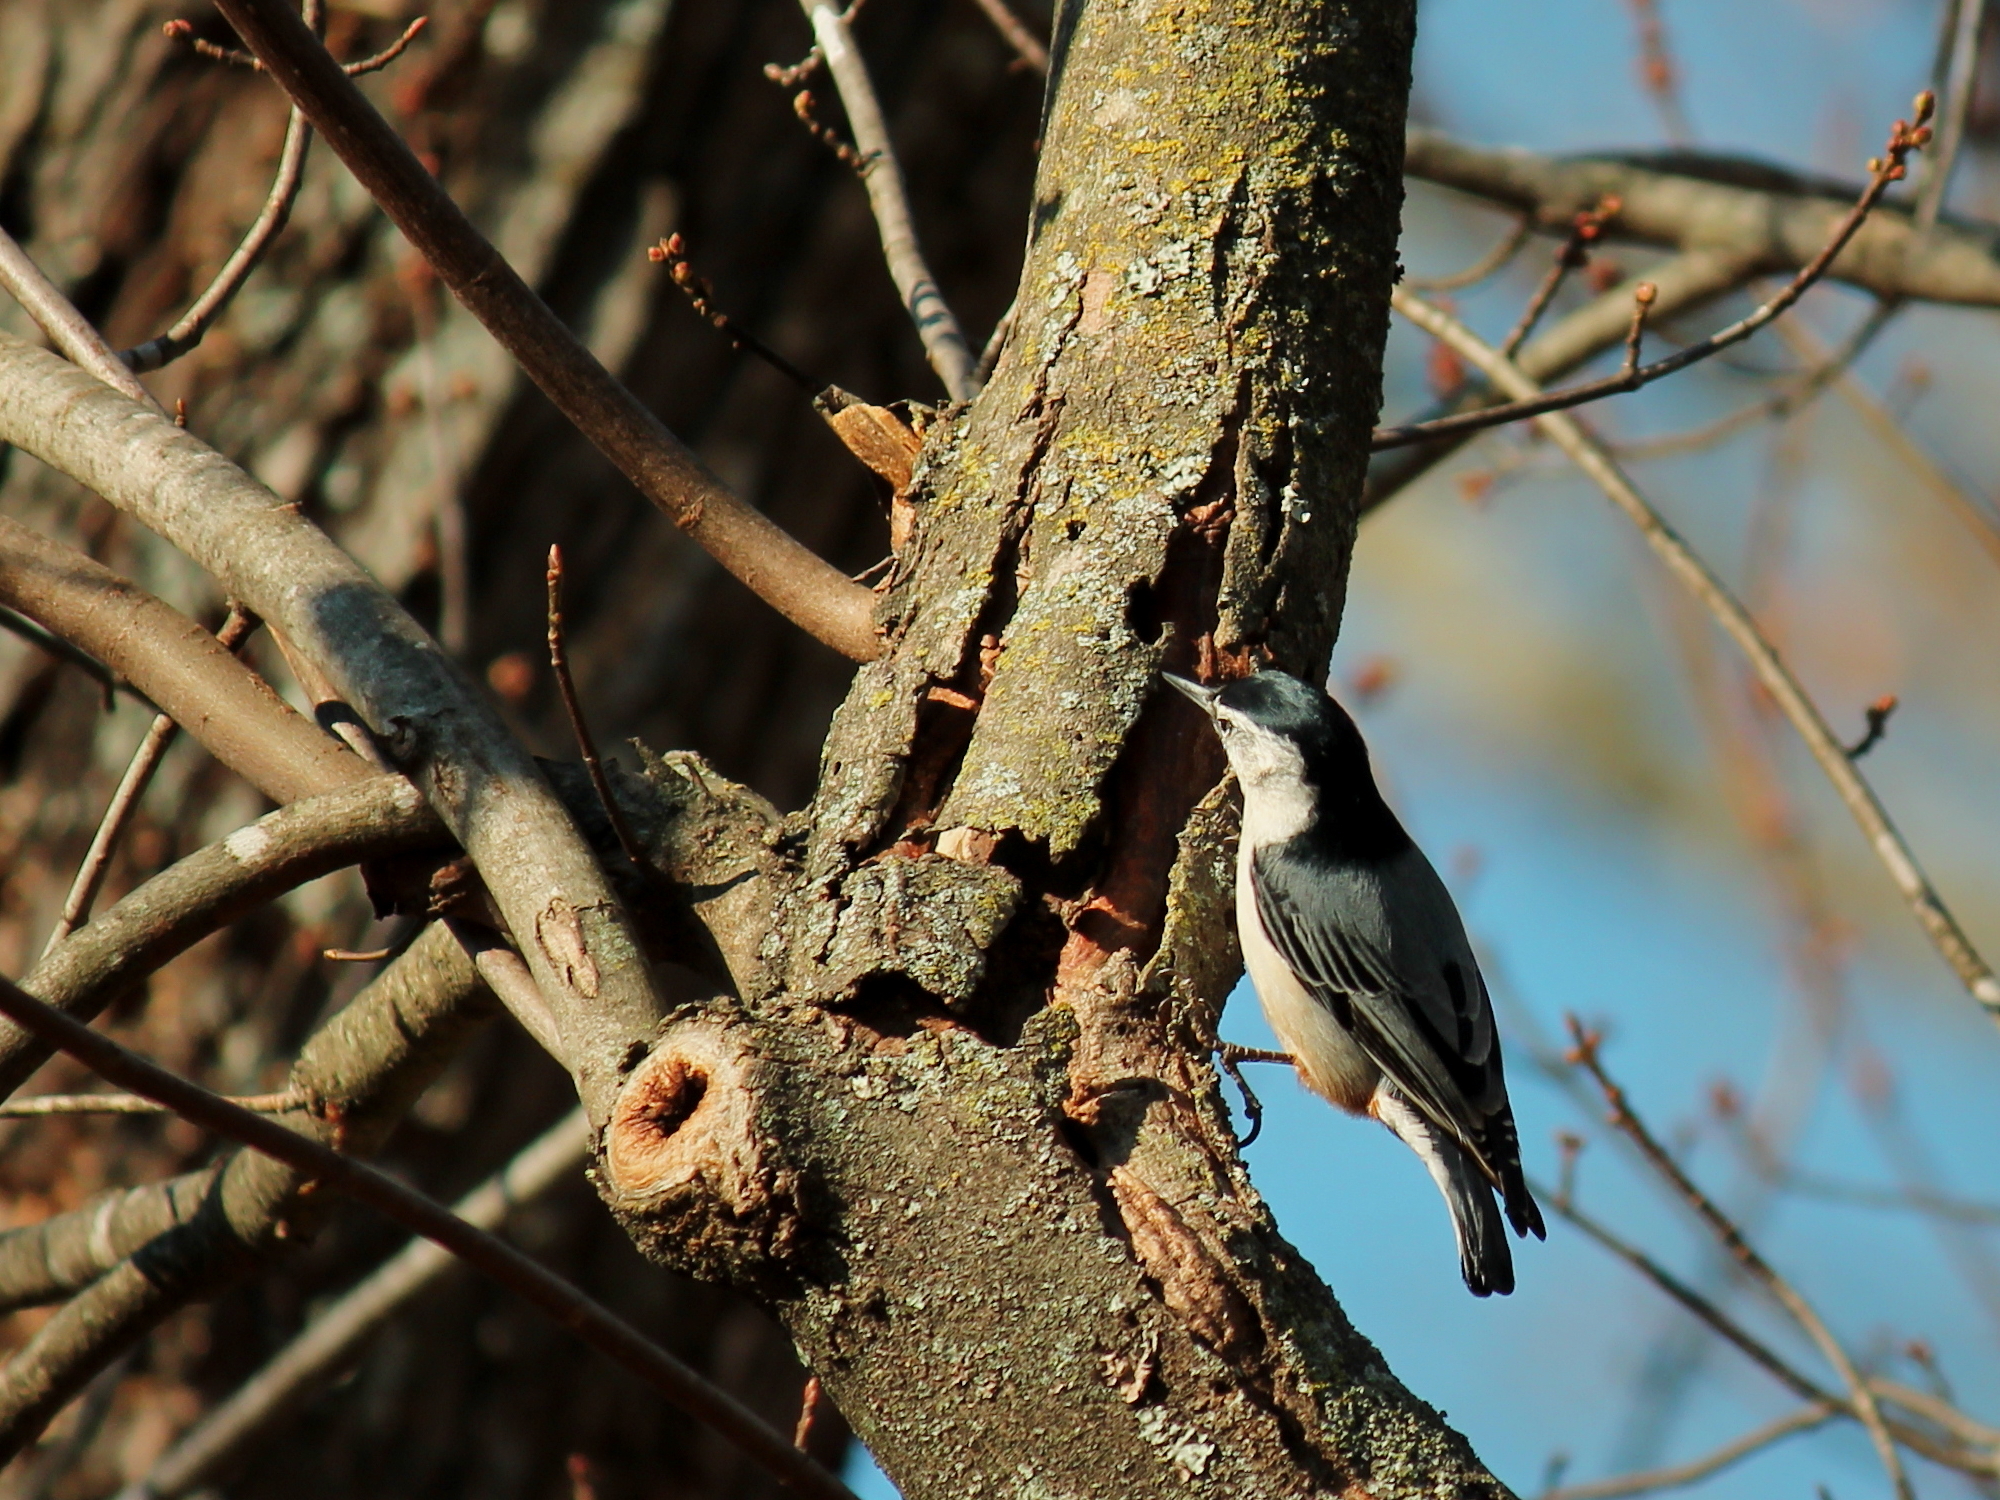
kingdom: Animalia
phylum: Chordata
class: Aves
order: Passeriformes
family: Sittidae
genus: Sitta
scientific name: Sitta carolinensis
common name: White-breasted nuthatch
